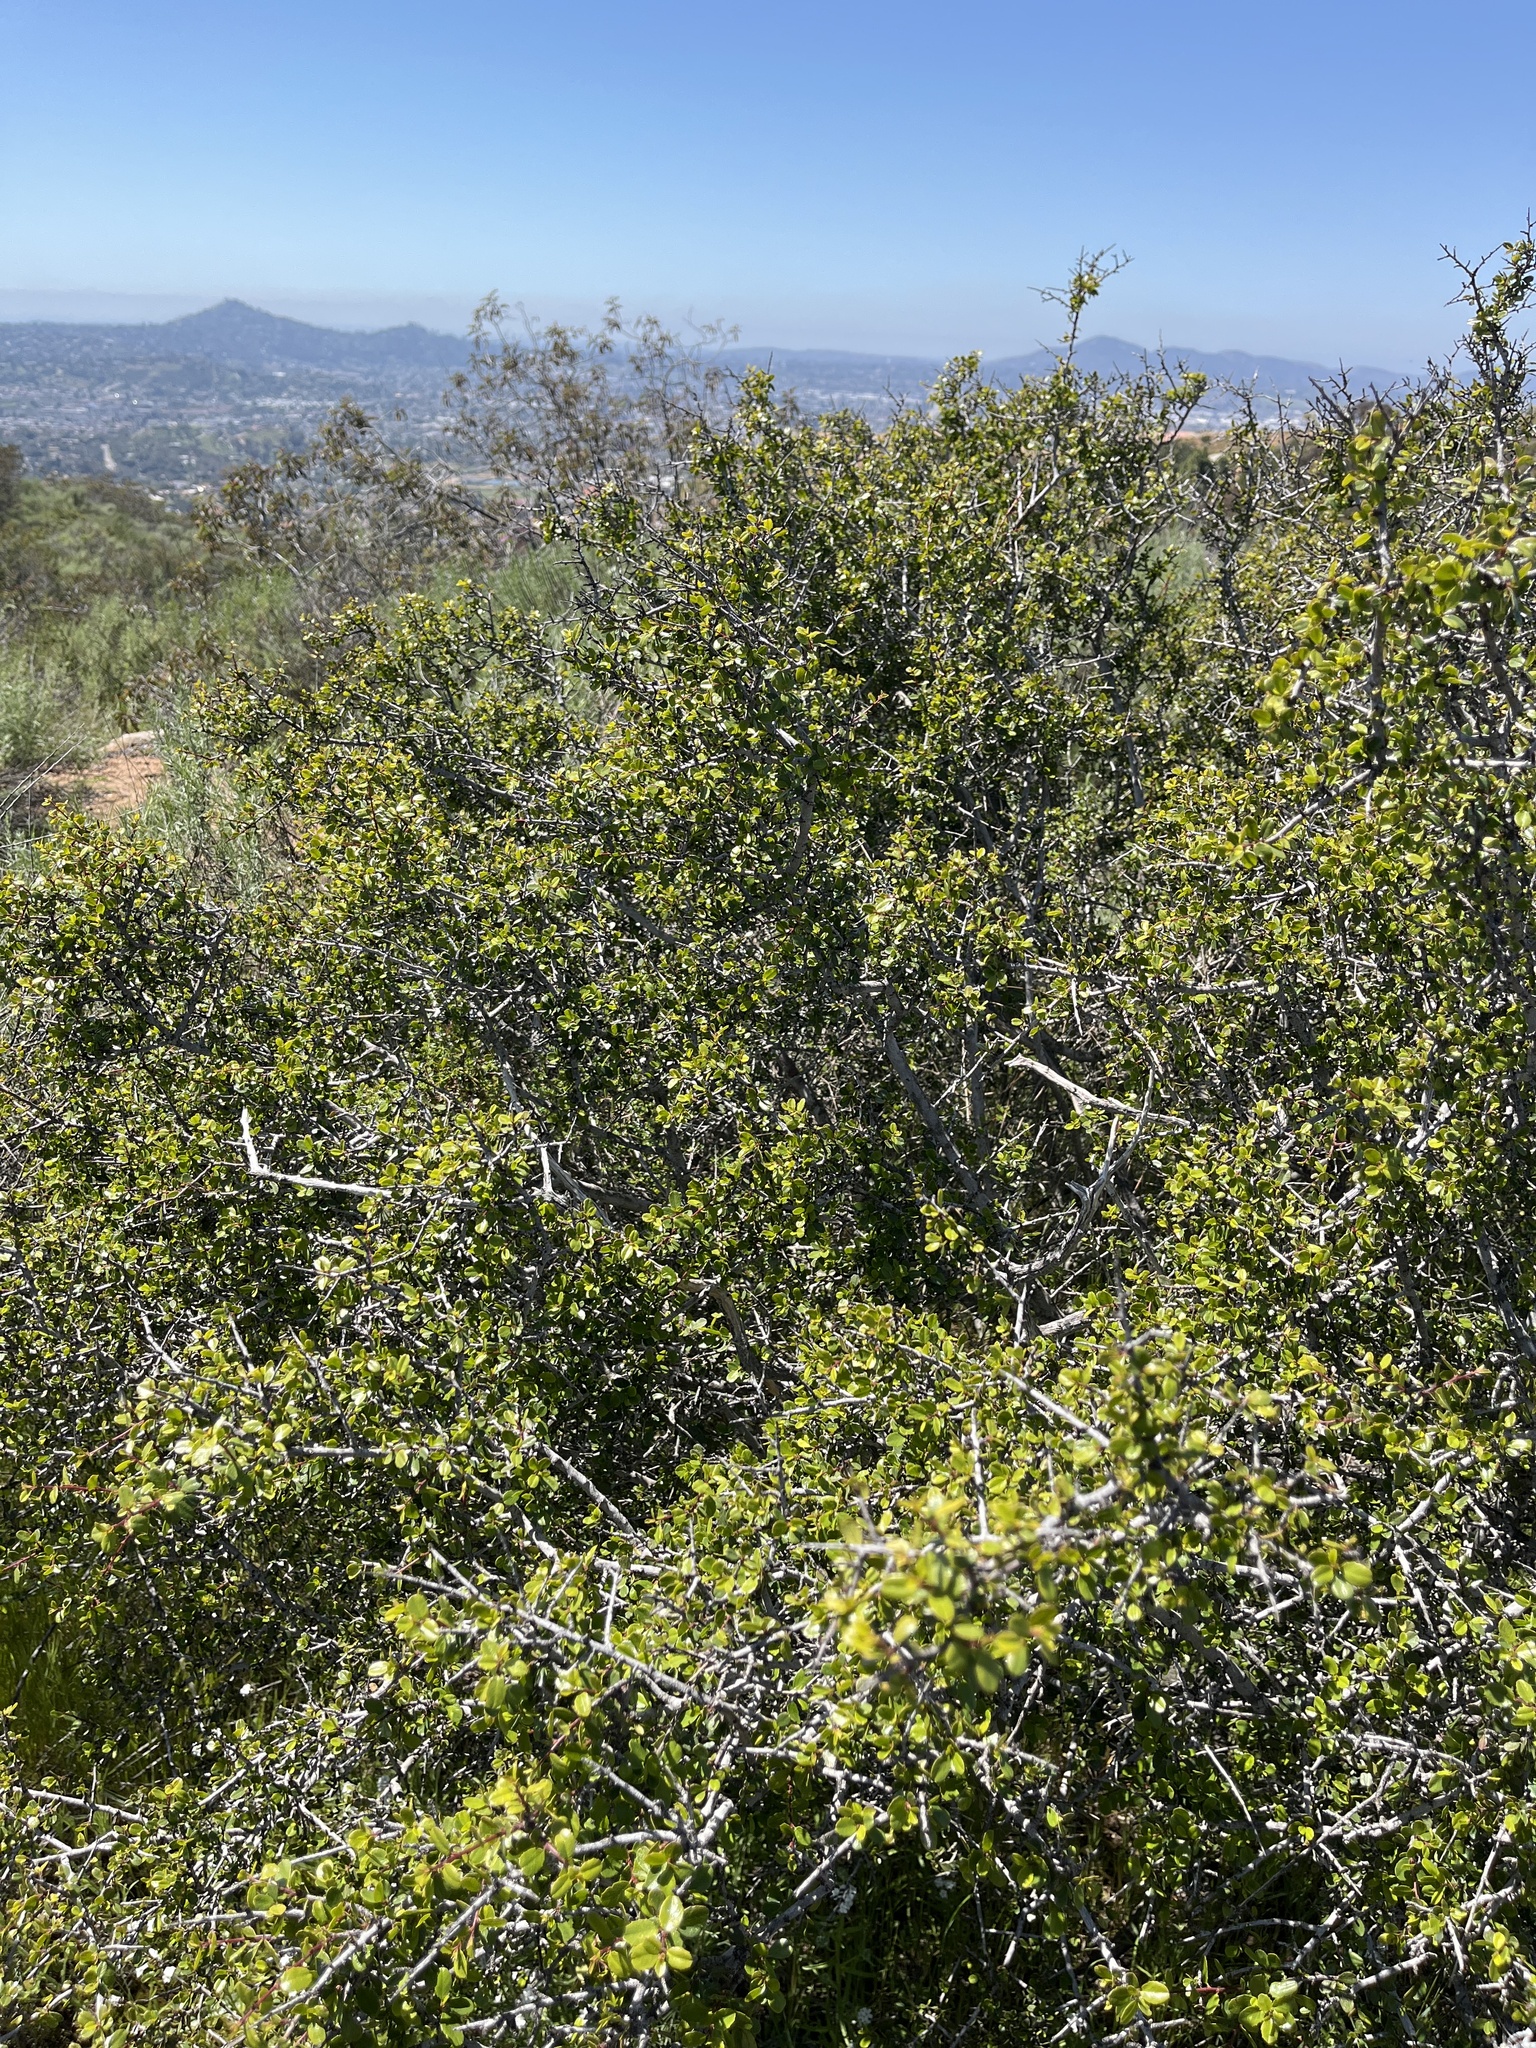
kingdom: Plantae
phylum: Tracheophyta
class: Magnoliopsida
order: Rosales
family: Rhamnaceae
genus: Endotropis
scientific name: Endotropis crocea
